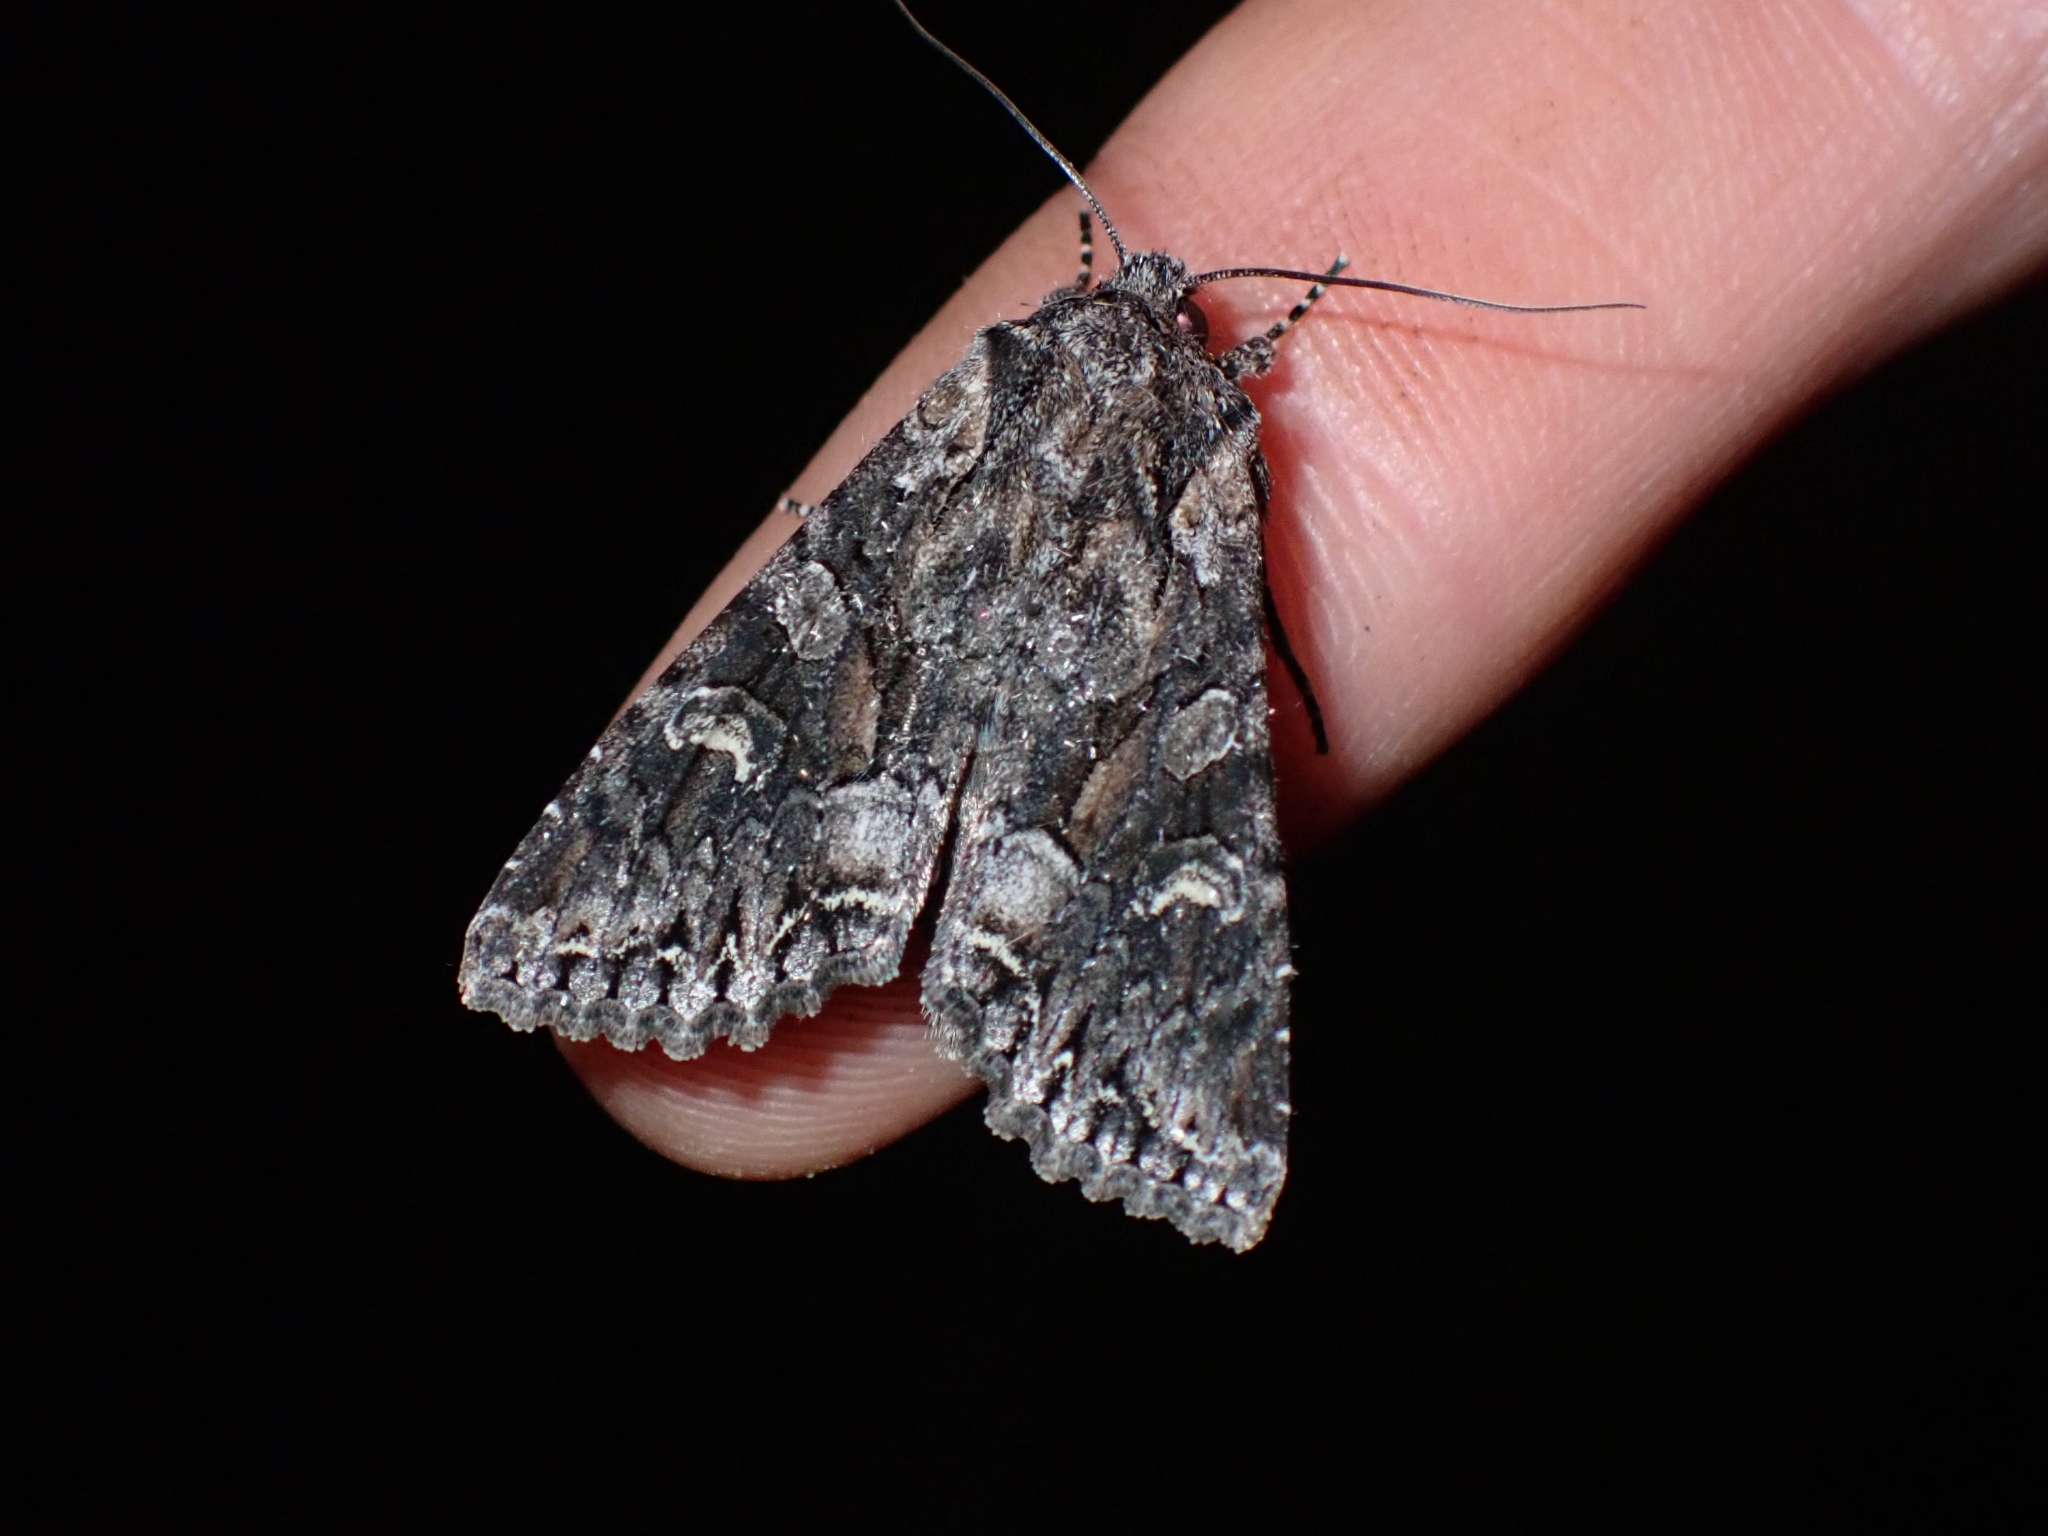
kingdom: Animalia
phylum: Arthropoda
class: Insecta
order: Lepidoptera
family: Noctuidae
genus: Mniotype
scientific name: Mniotype usurpatrix
